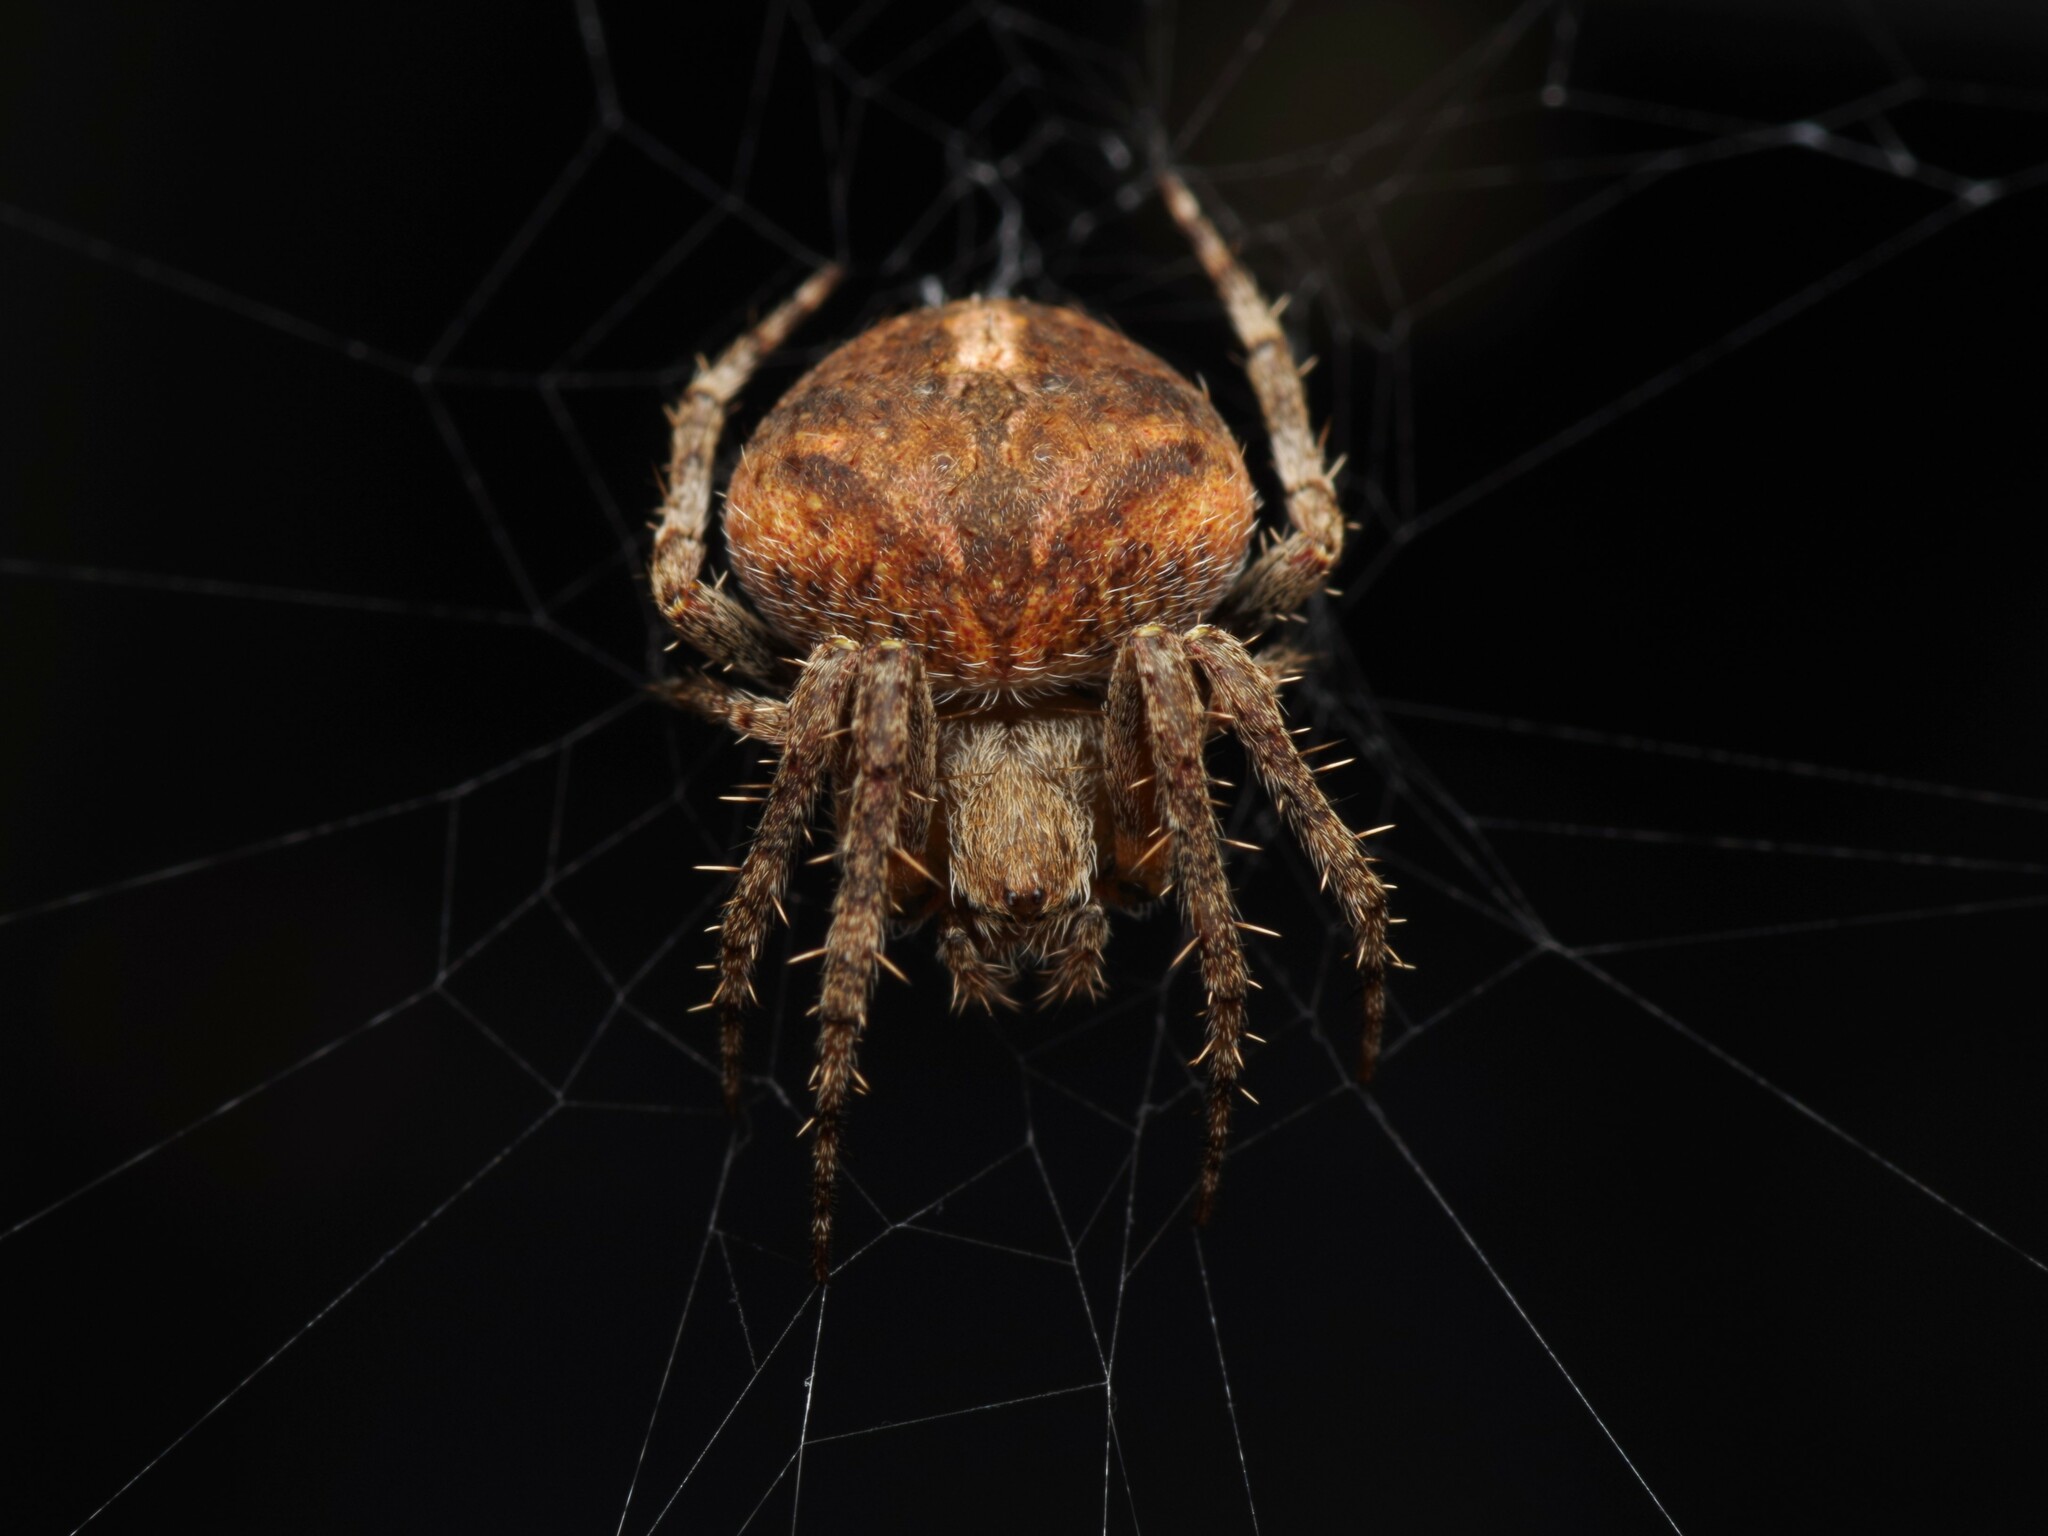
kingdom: Animalia
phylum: Arthropoda
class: Arachnida
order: Araneae
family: Araneidae
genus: Neoscona
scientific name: Neoscona subfusca
